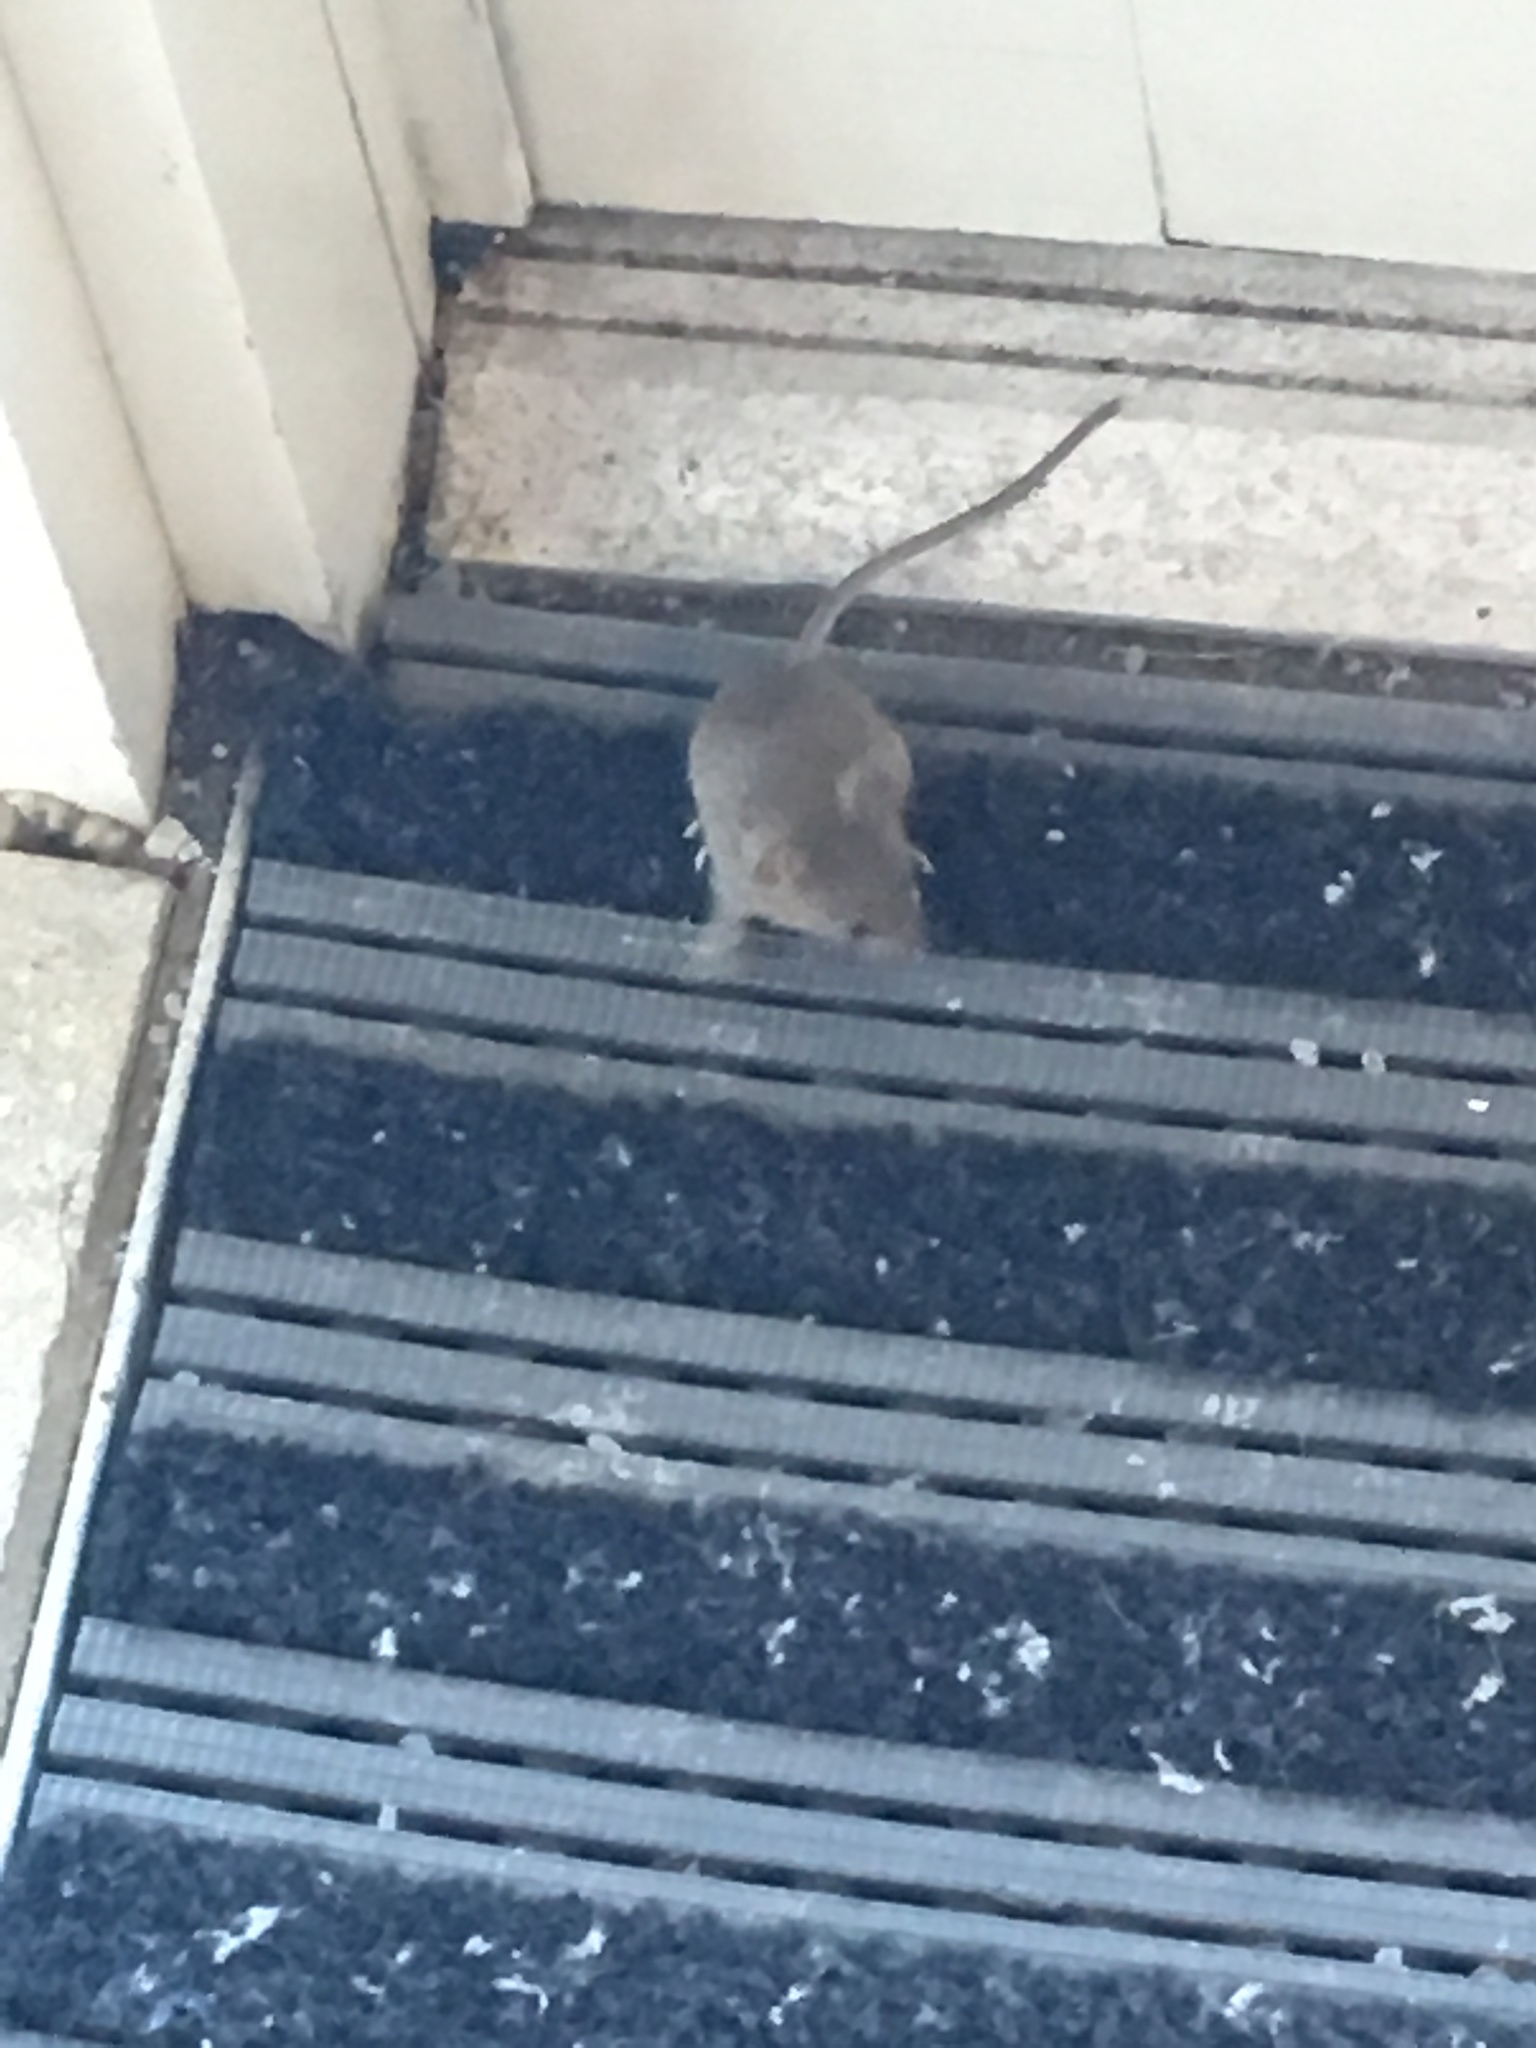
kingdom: Animalia
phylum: Chordata
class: Mammalia
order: Rodentia
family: Muridae
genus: Mus
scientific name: Mus musculus
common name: House mouse
